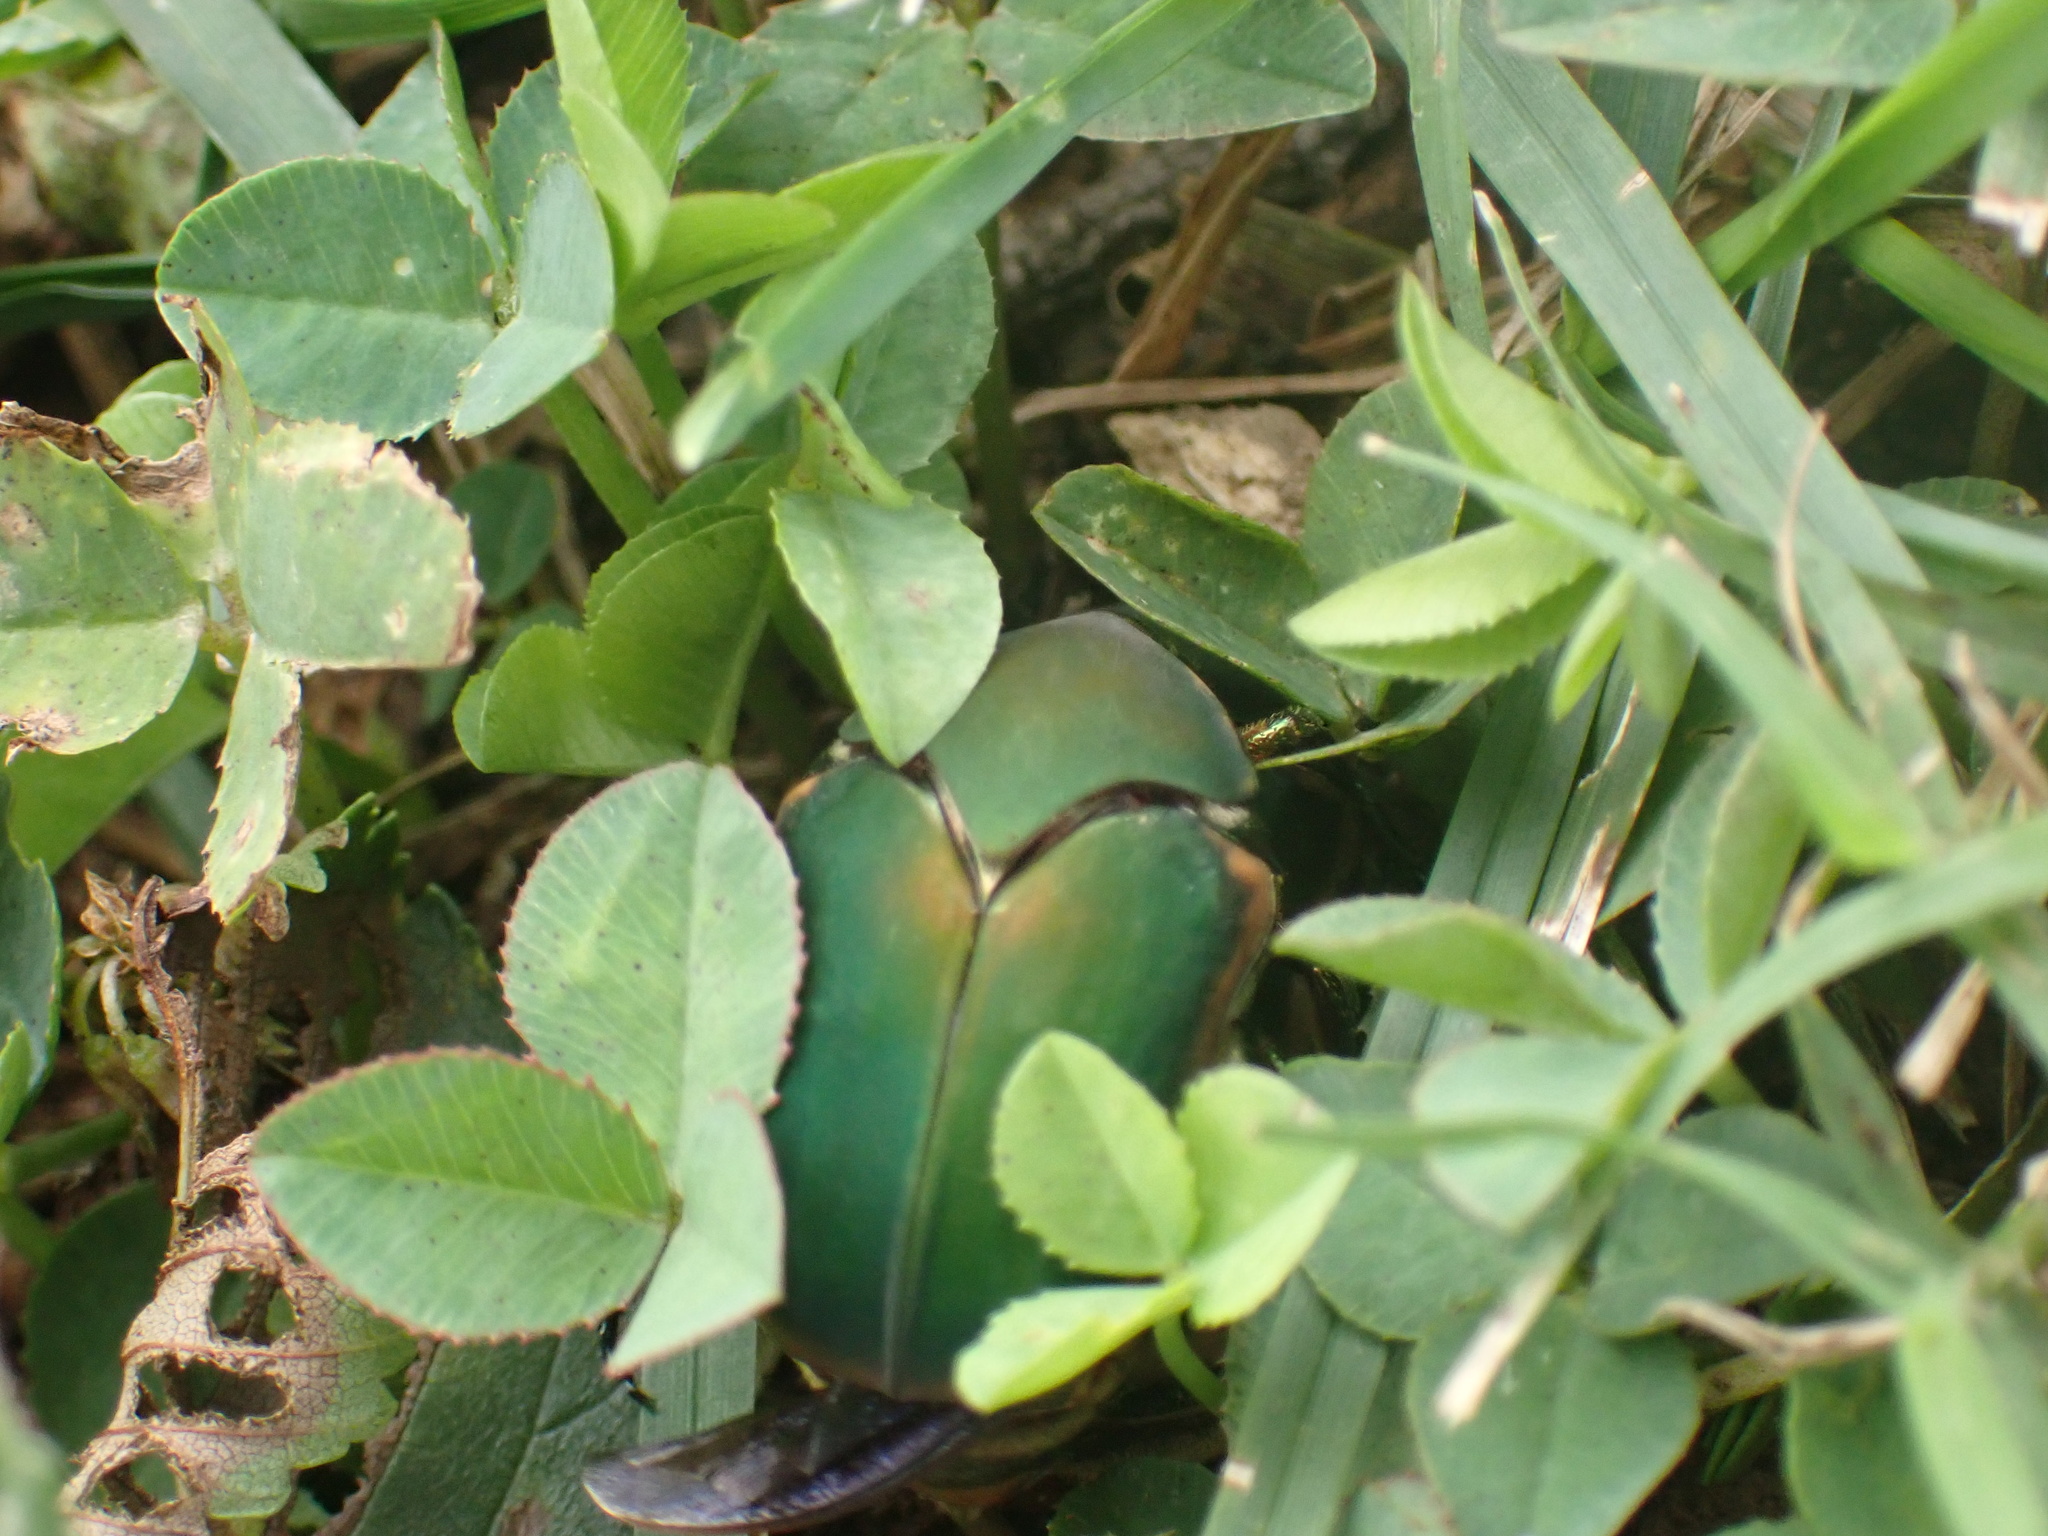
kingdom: Animalia
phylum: Arthropoda
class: Insecta
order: Coleoptera
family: Scarabaeidae
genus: Cotinis
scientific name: Cotinis nitida
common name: Common green june beetle
